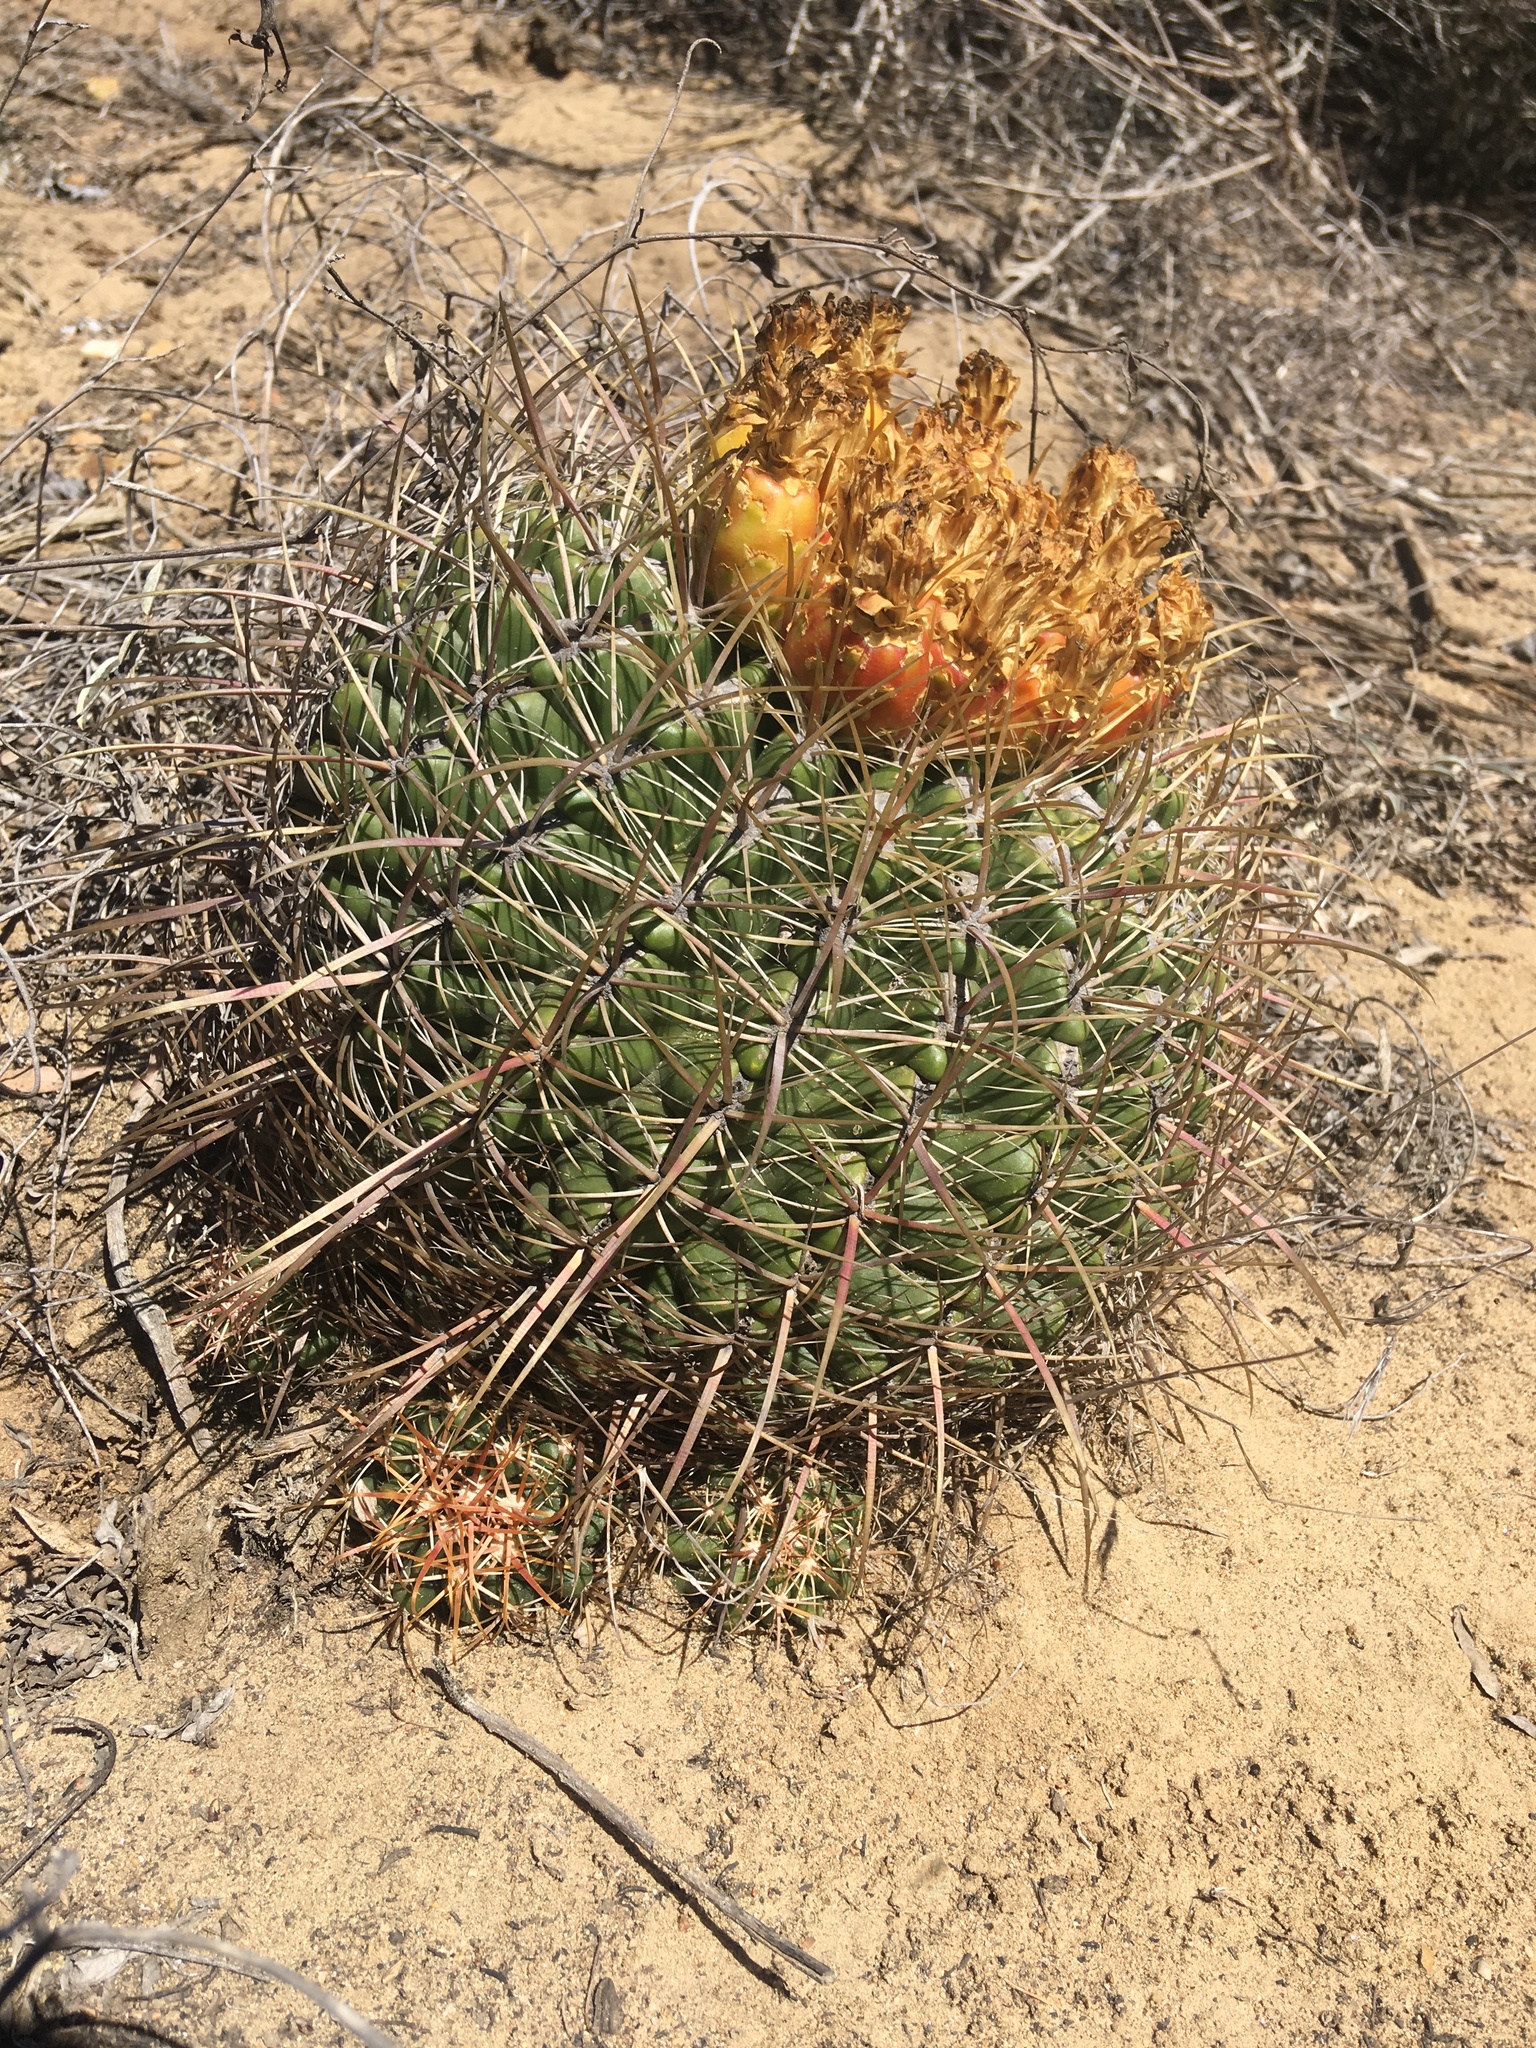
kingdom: Plantae
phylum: Tracheophyta
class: Magnoliopsida
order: Caryophyllales
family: Cactaceae
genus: Ferocactus
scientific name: Ferocactus viridescens
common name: San diego barrel cactus
